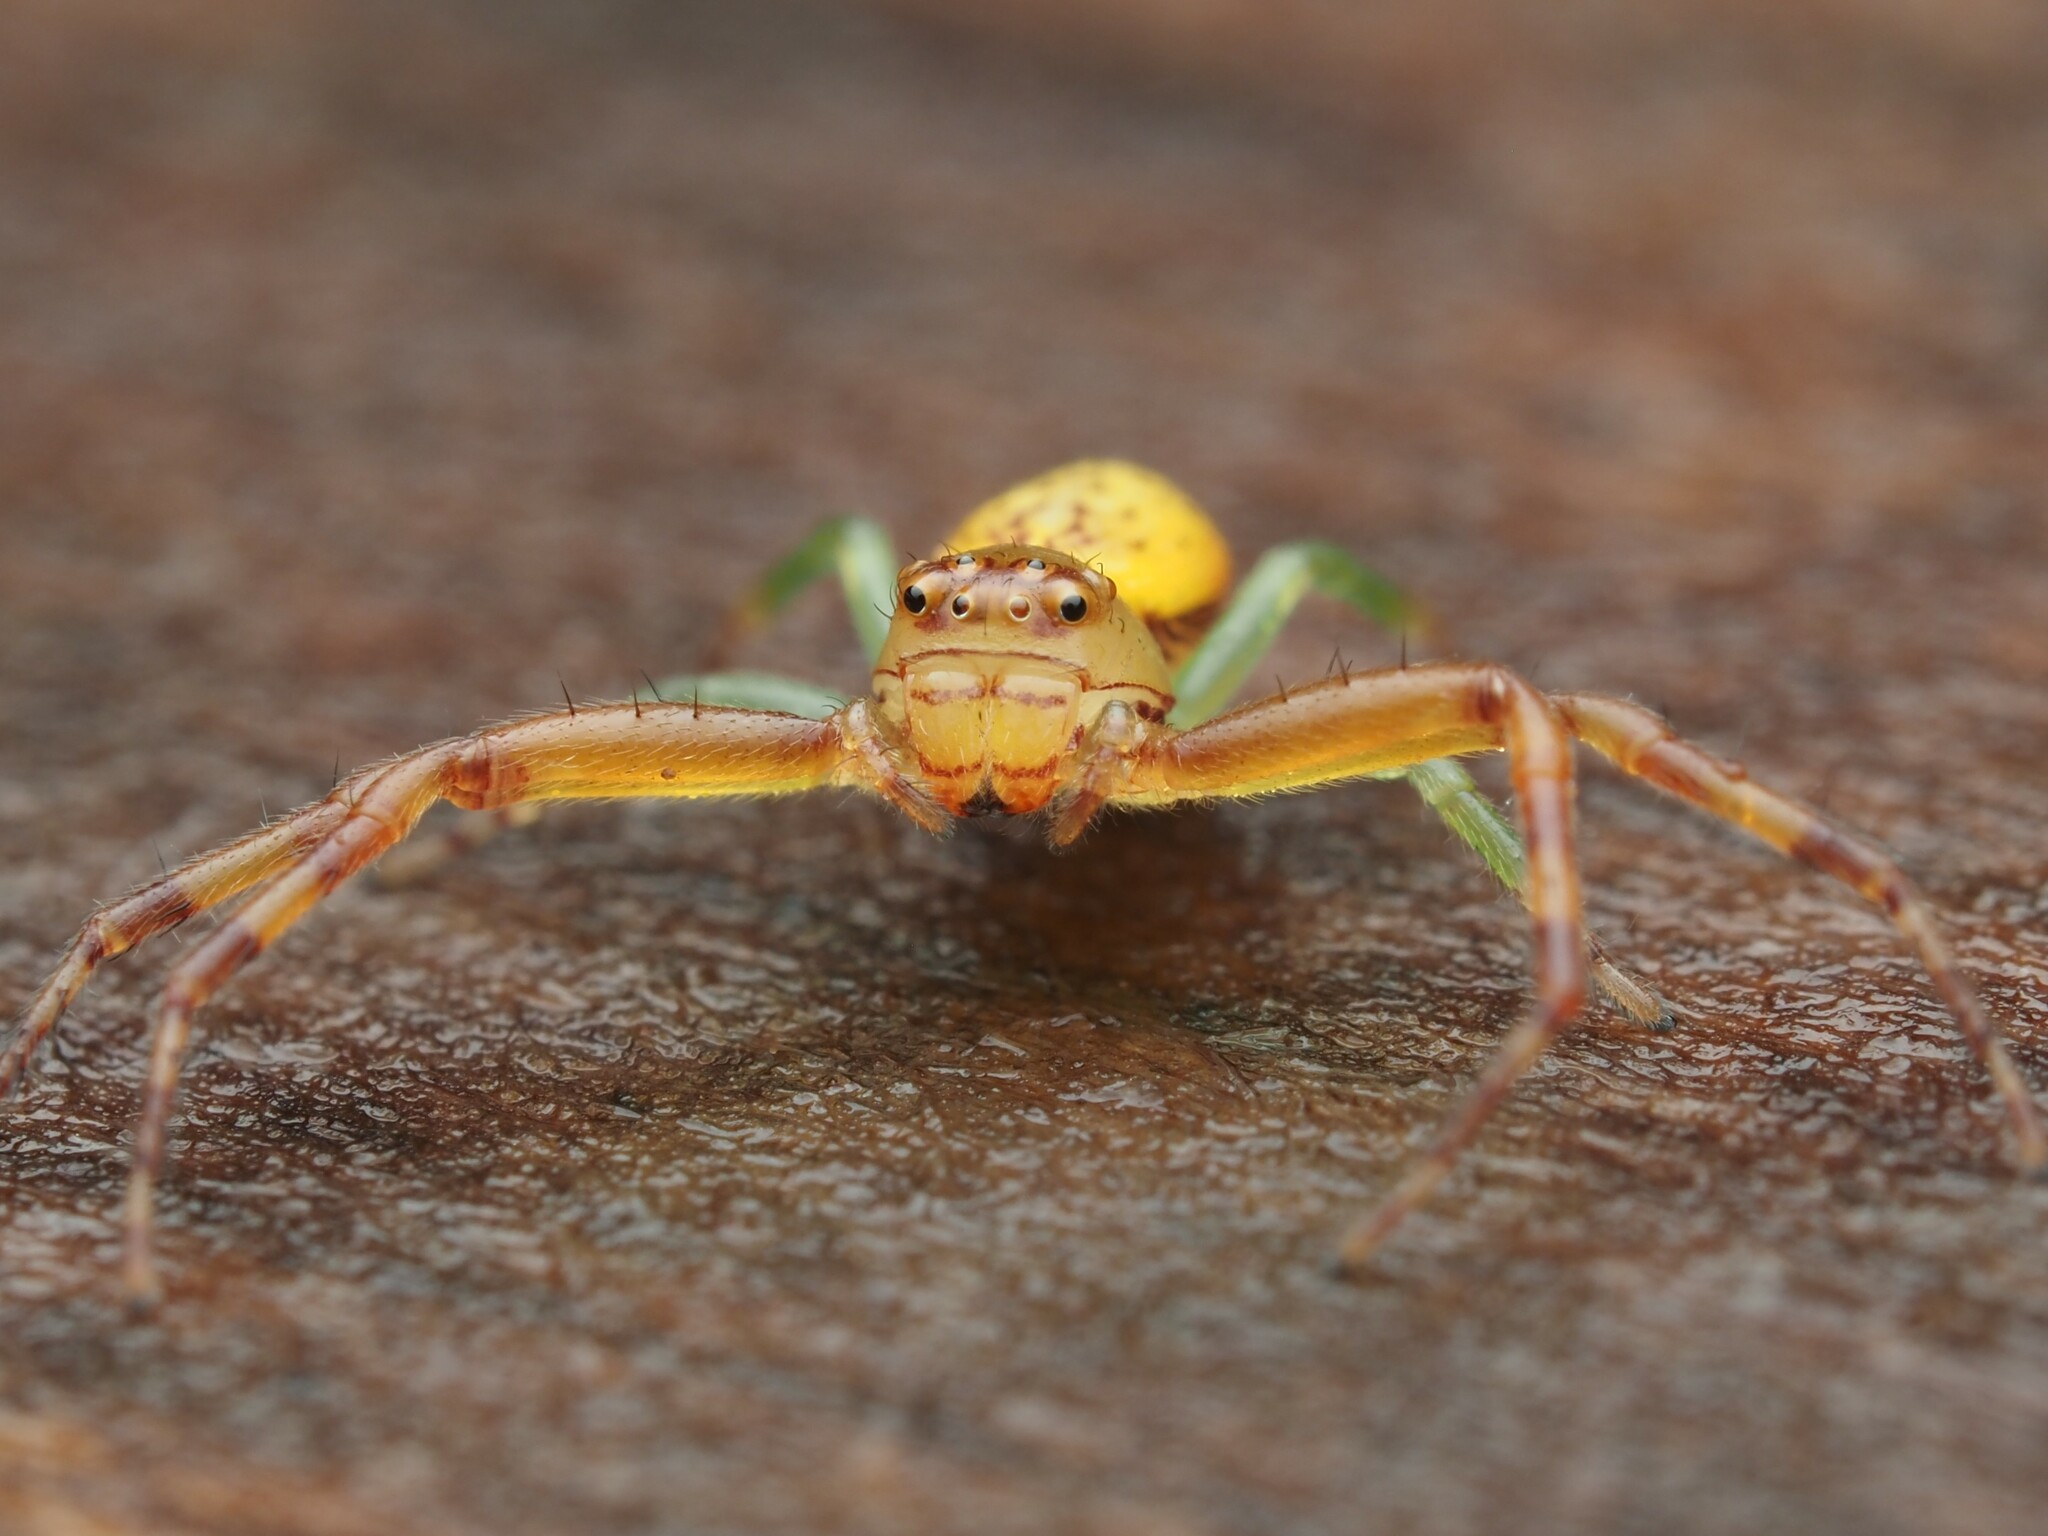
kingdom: Animalia
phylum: Arthropoda
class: Arachnida
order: Araneae
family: Thomisidae
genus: Diaea
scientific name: Diaea ambara
